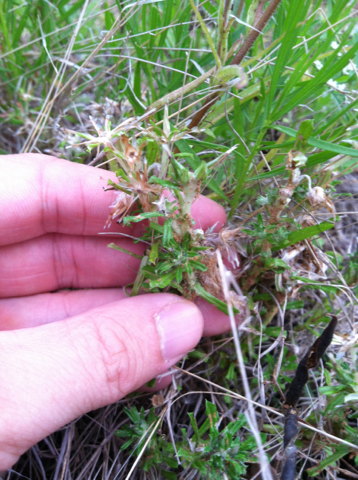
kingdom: Plantae
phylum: Tracheophyta
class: Magnoliopsida
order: Asterales
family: Asteraceae
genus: Facelis
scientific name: Facelis retusa
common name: Annual trampweed
